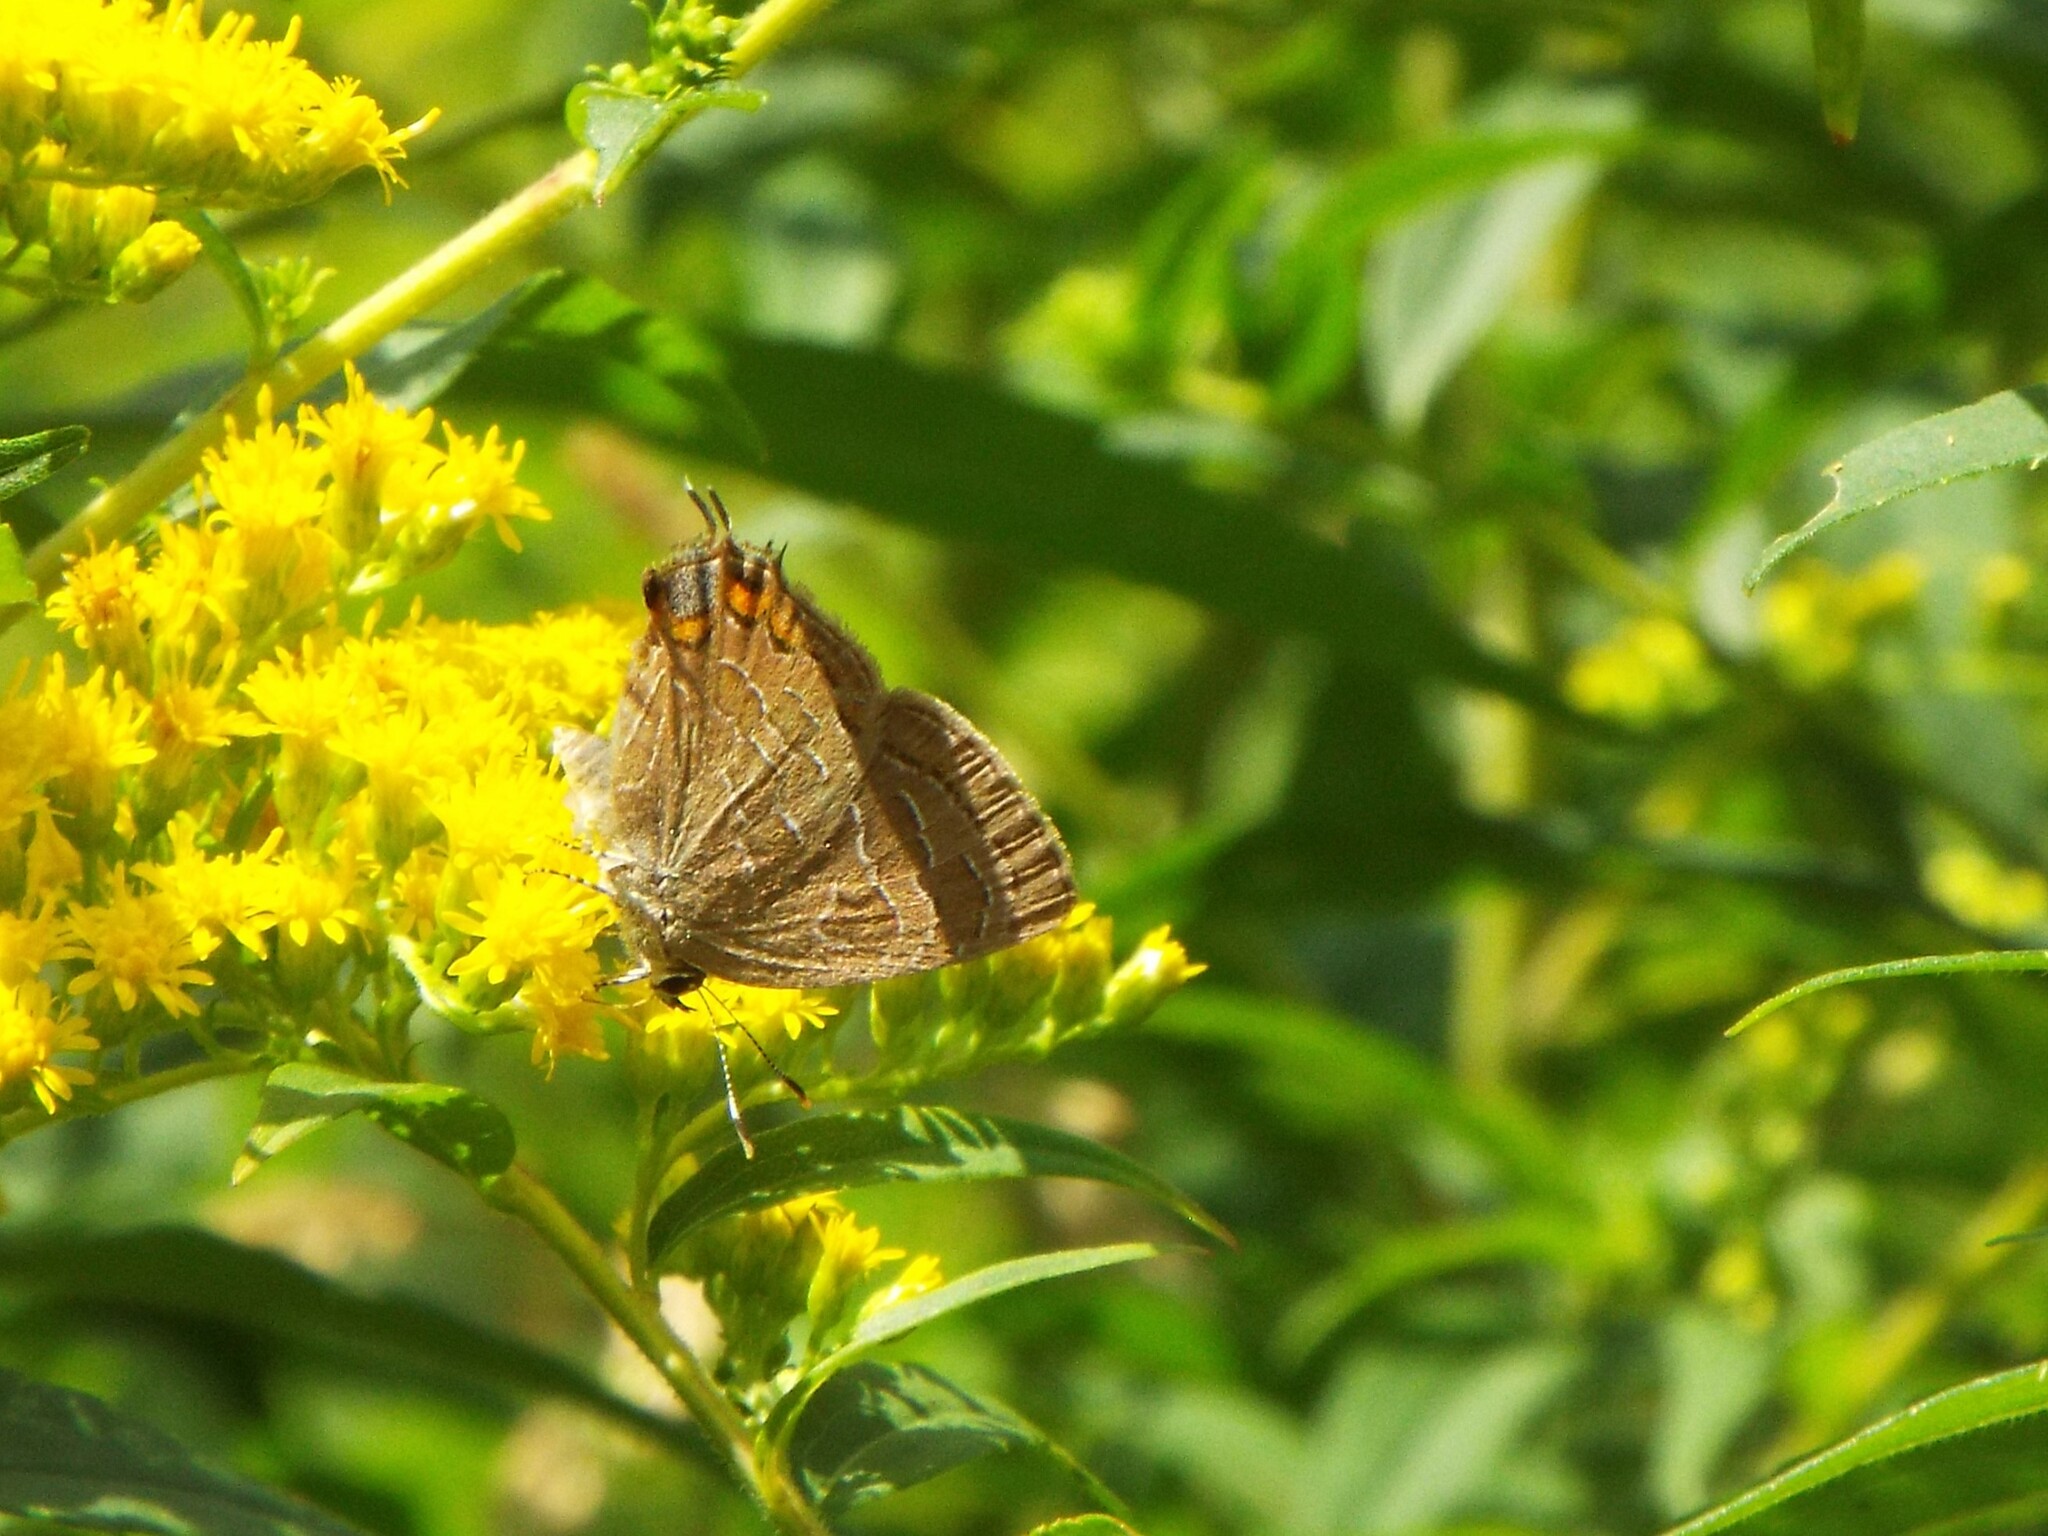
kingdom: Animalia
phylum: Arthropoda
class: Insecta
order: Lepidoptera
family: Lycaenidae
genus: Satyrium
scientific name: Satyrium liparops
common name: Striped hairstreak
